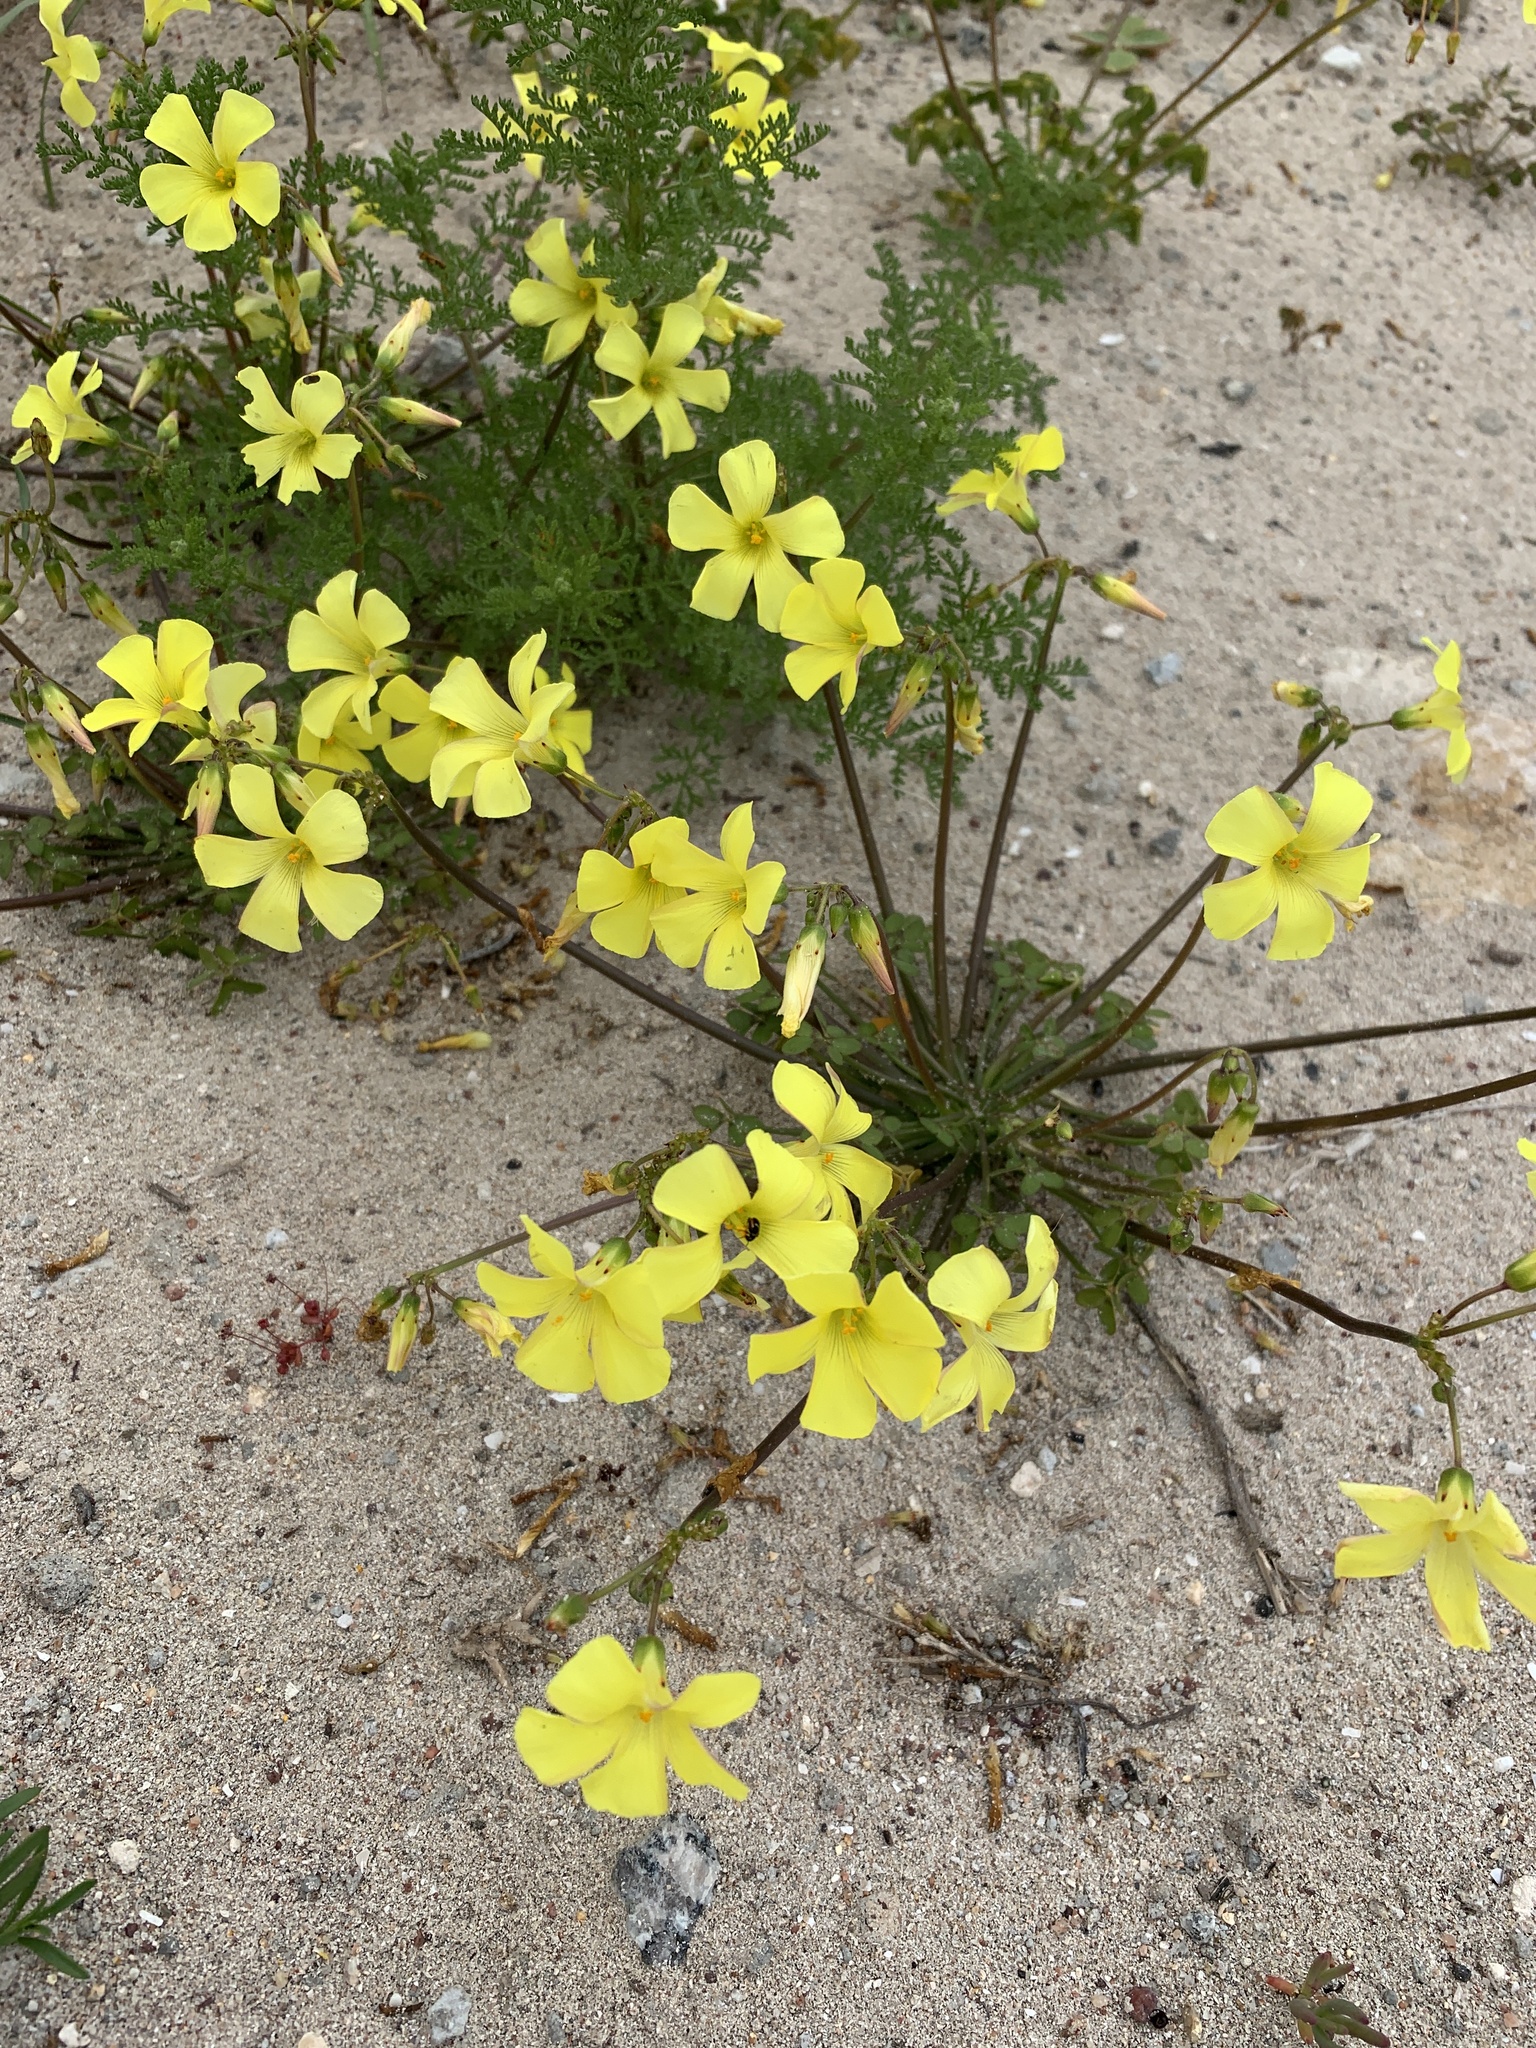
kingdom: Plantae
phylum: Tracheophyta
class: Magnoliopsida
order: Oxalidales
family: Oxalidaceae
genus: Oxalis
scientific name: Oxalis pes-caprae
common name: Bermuda-buttercup
